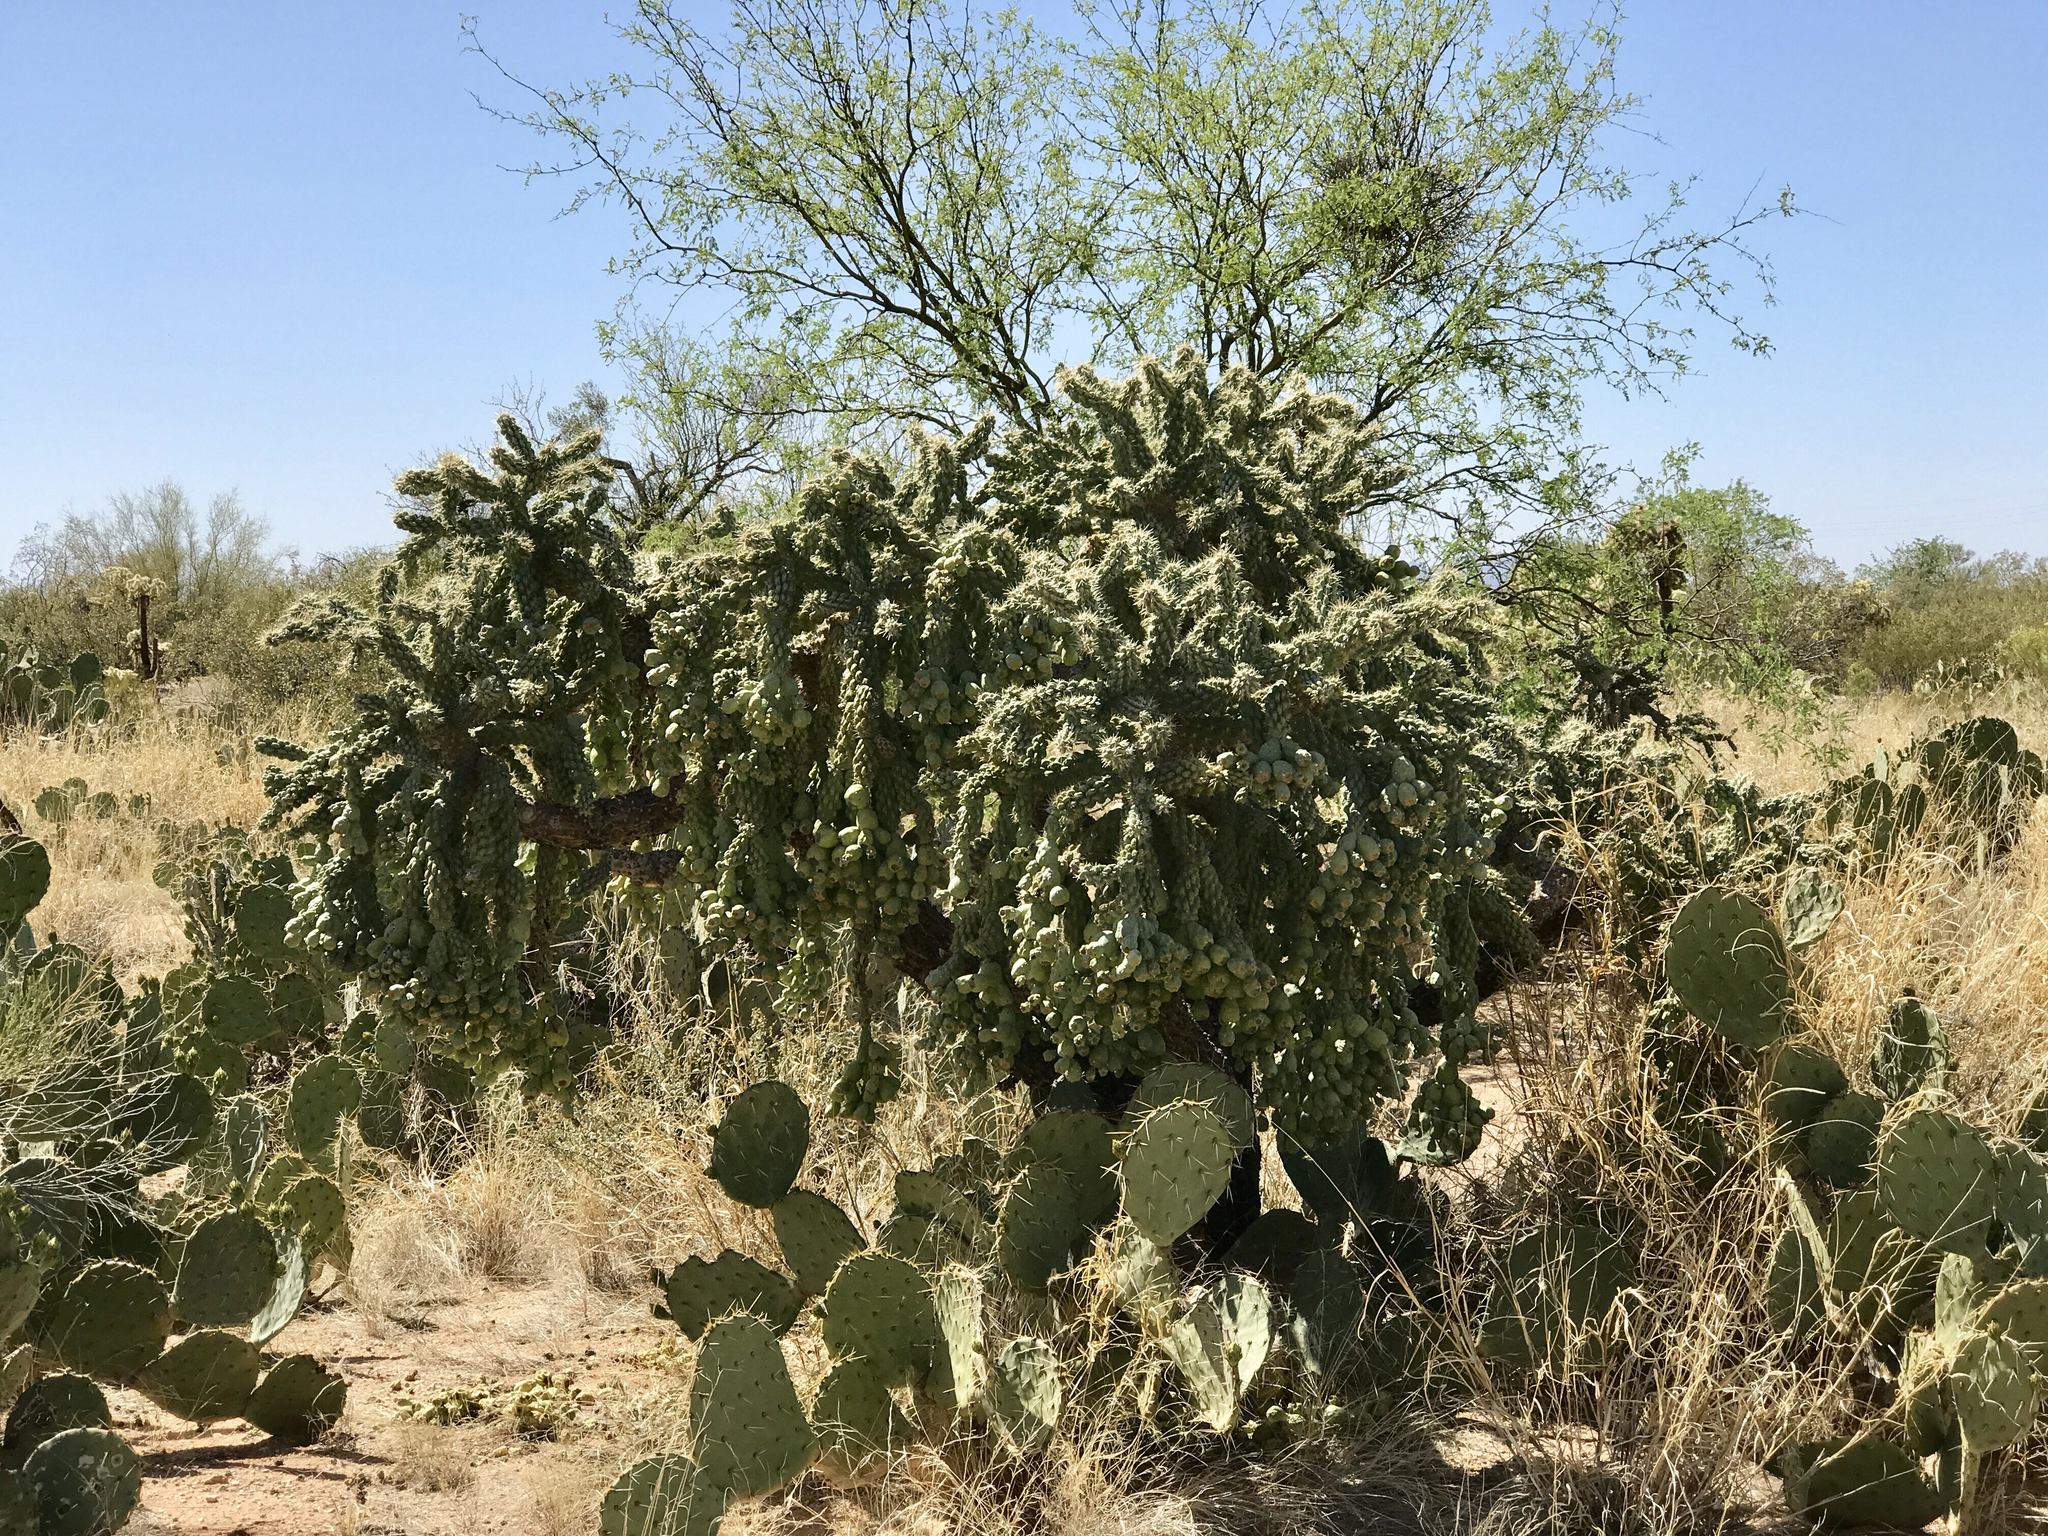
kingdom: Plantae
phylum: Tracheophyta
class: Magnoliopsida
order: Caryophyllales
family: Cactaceae
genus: Cylindropuntia
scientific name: Cylindropuntia fulgida
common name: Jumping cholla
